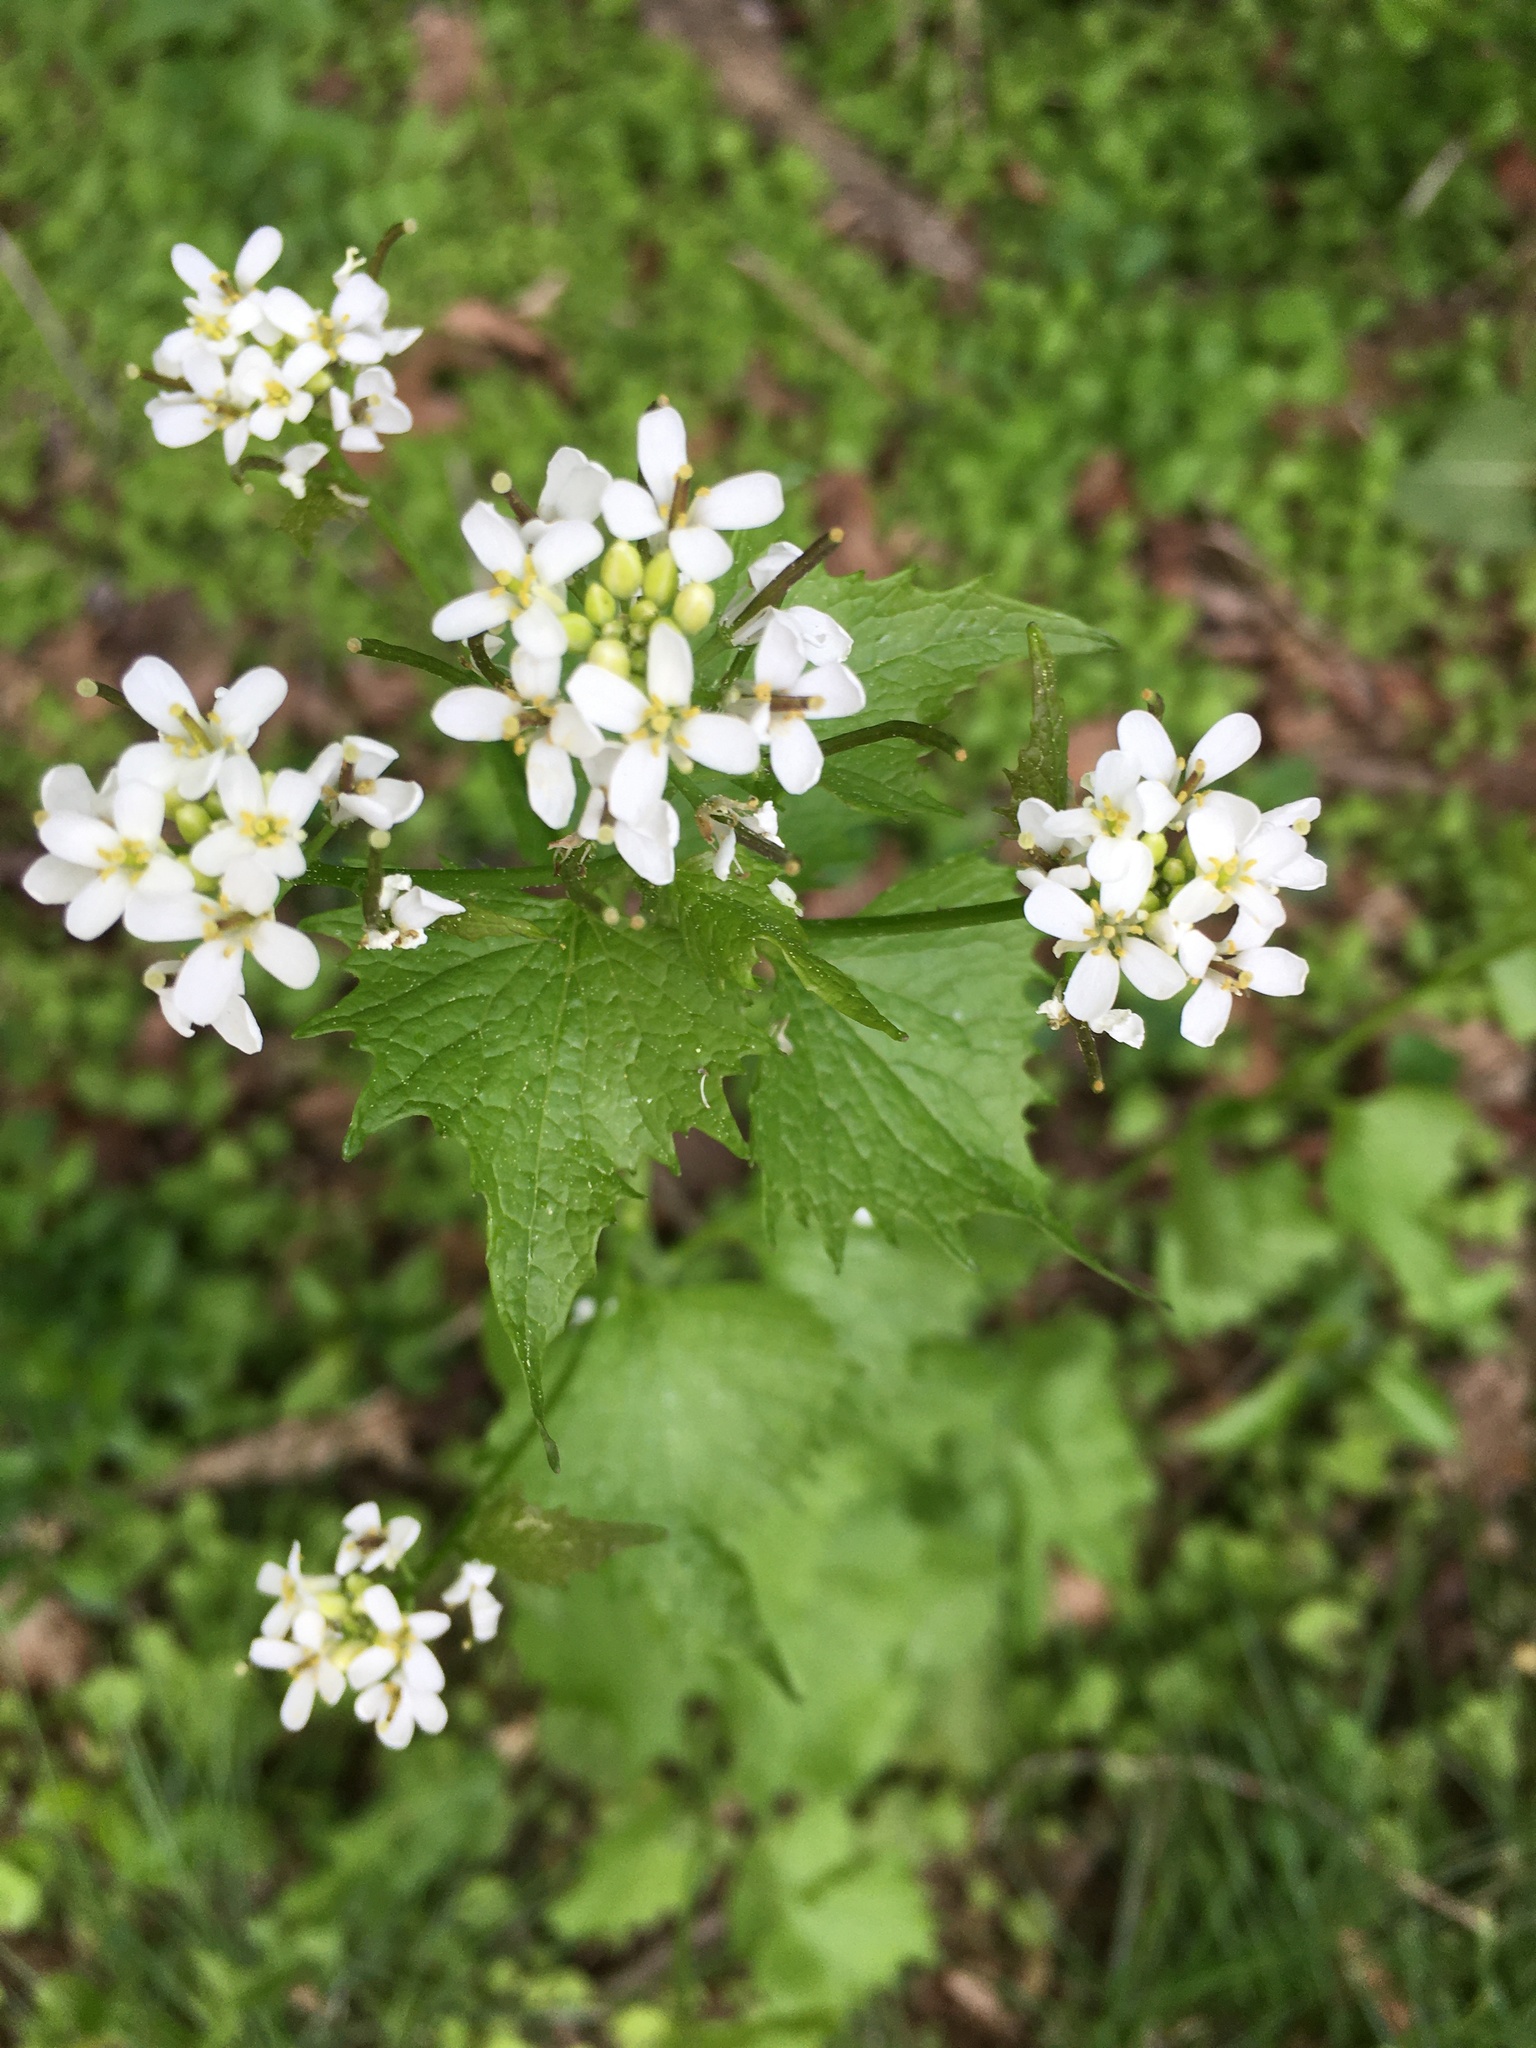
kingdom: Plantae
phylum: Tracheophyta
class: Magnoliopsida
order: Brassicales
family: Brassicaceae
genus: Alliaria
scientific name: Alliaria petiolata
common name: Garlic mustard
